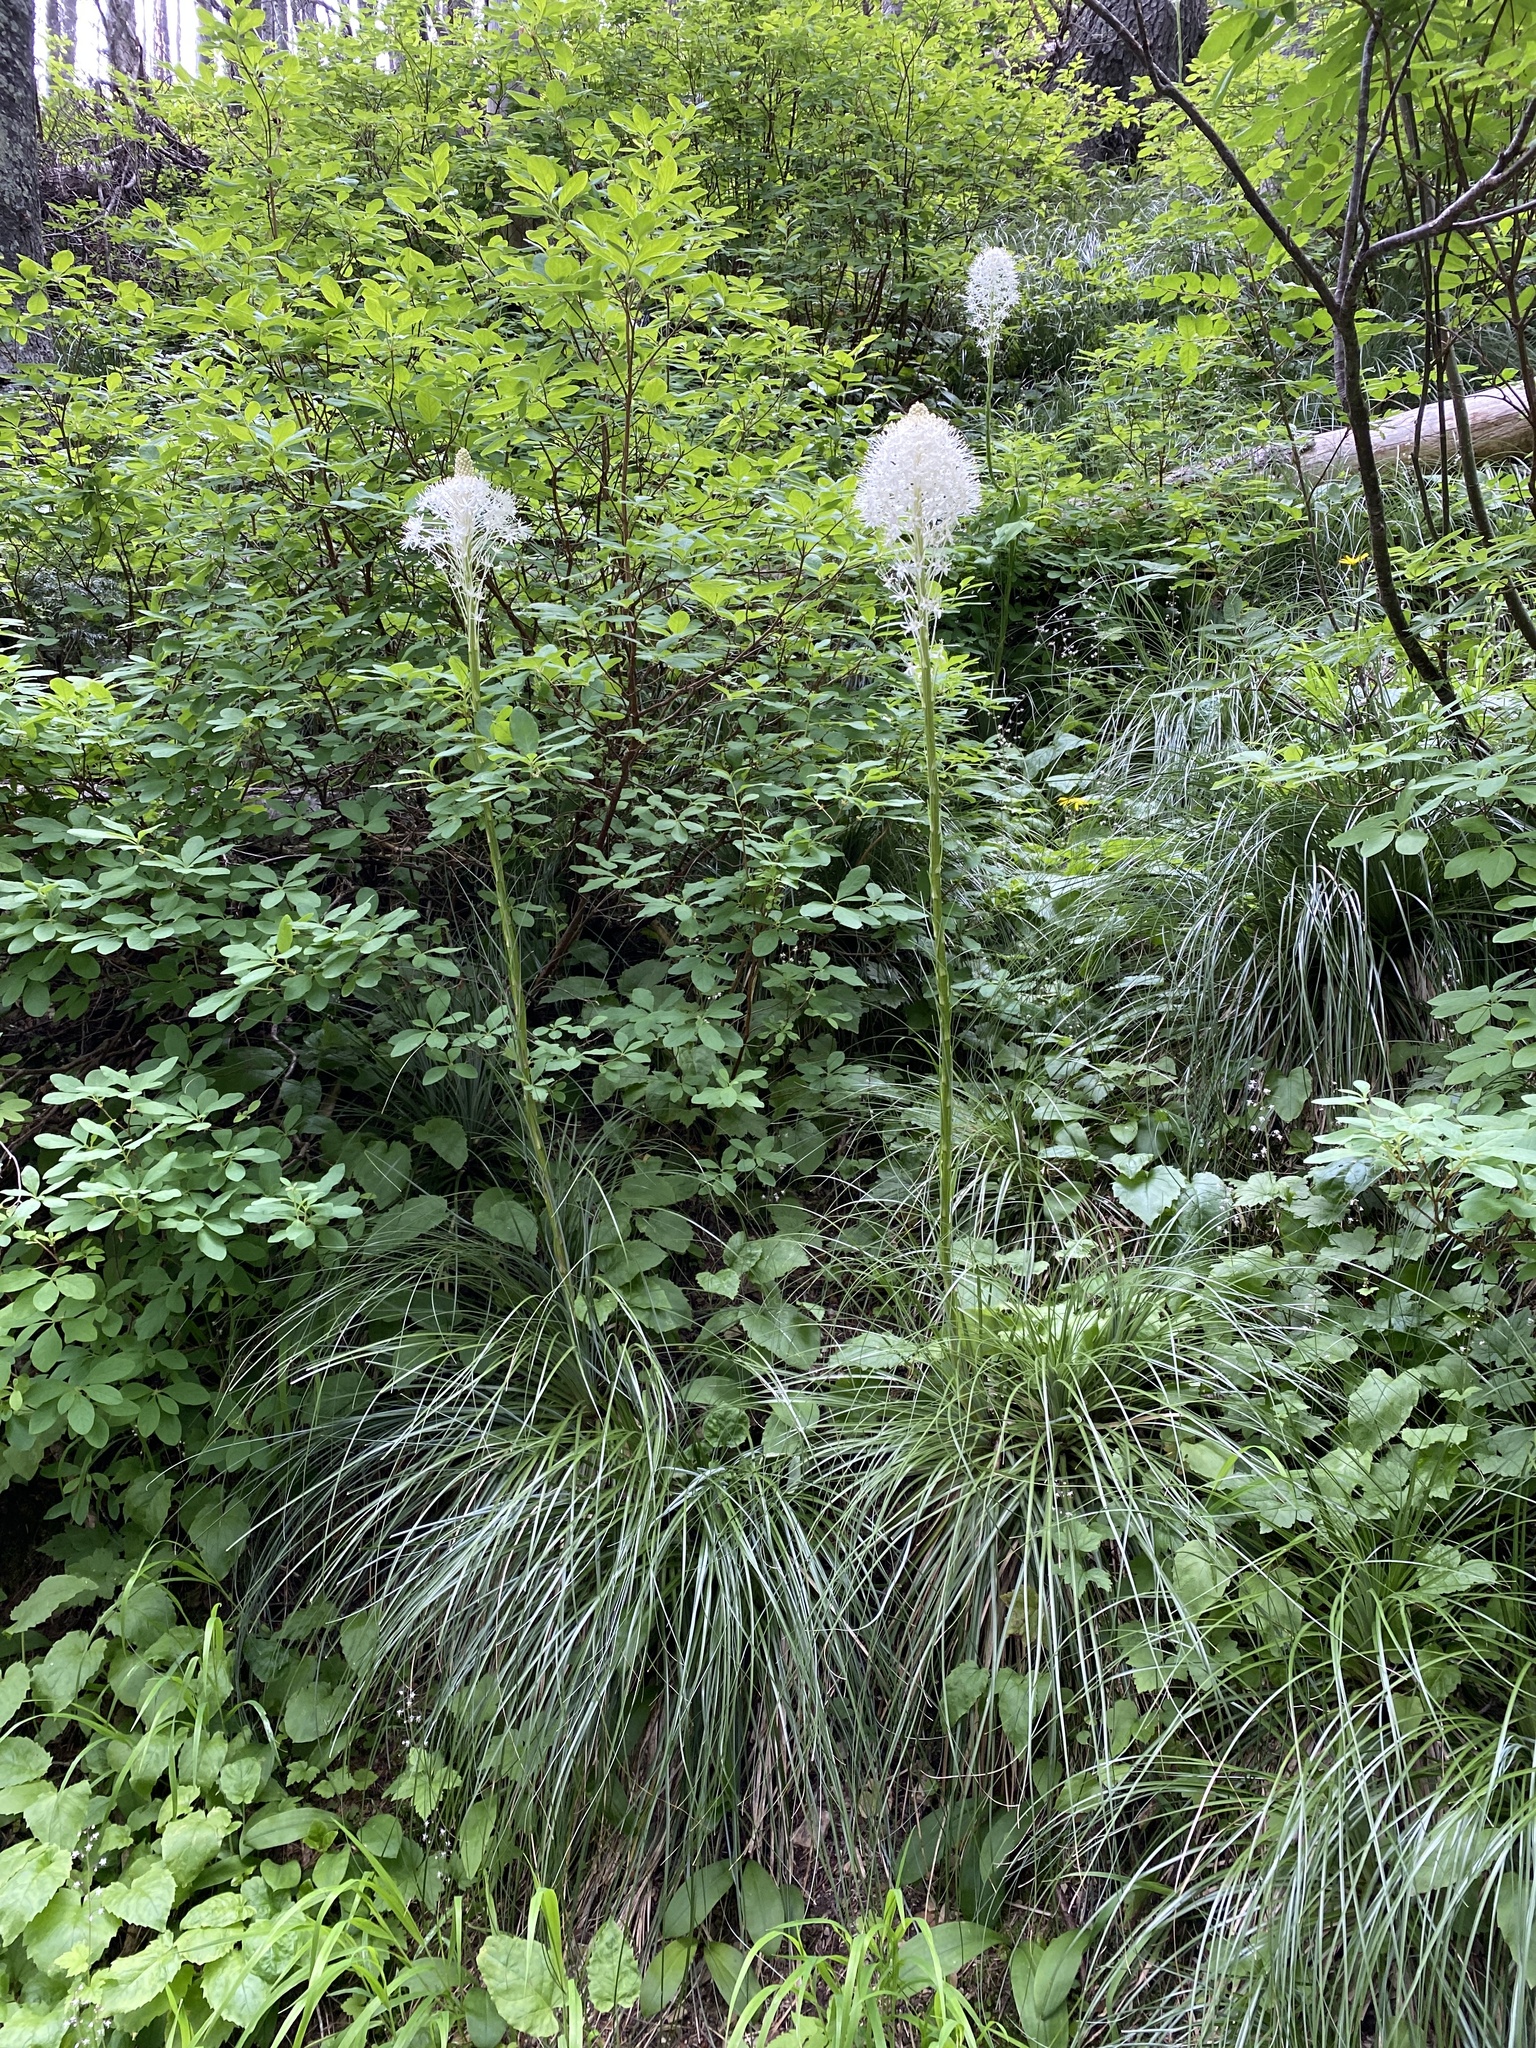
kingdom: Plantae
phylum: Tracheophyta
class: Liliopsida
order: Liliales
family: Melanthiaceae
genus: Xerophyllum
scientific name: Xerophyllum tenax
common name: Bear-grass
